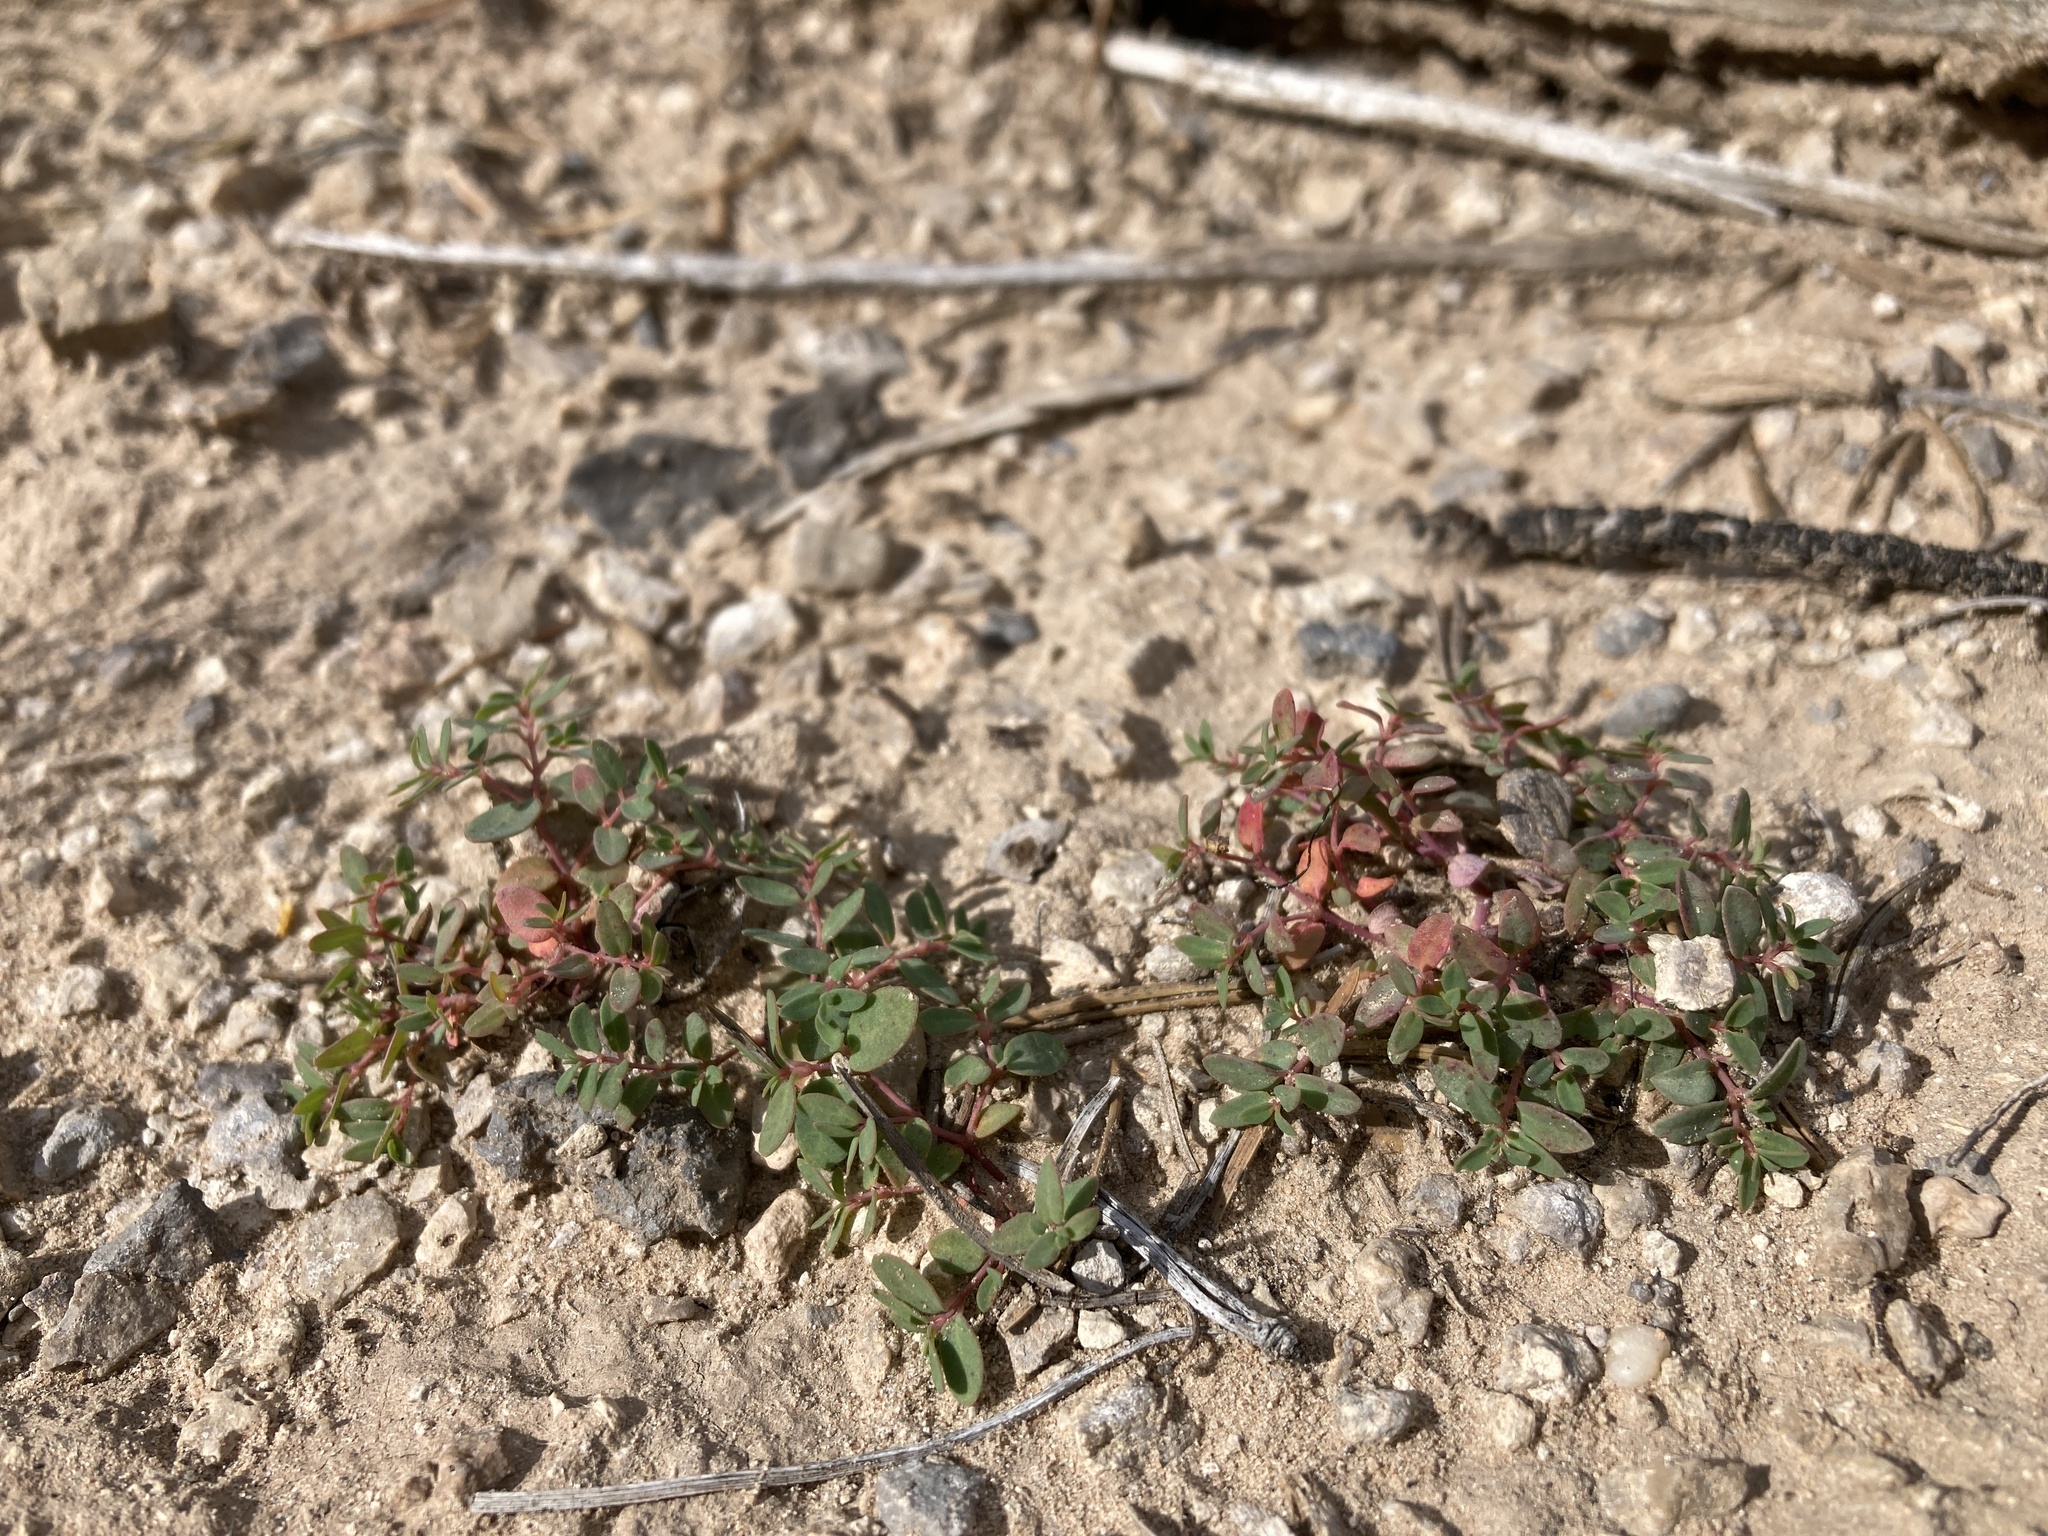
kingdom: Plantae
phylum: Tracheophyta
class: Magnoliopsida
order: Malpighiales
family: Euphorbiaceae
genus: Euphorbia
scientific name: Euphorbia fendleri
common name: Fendler's euphorbia
